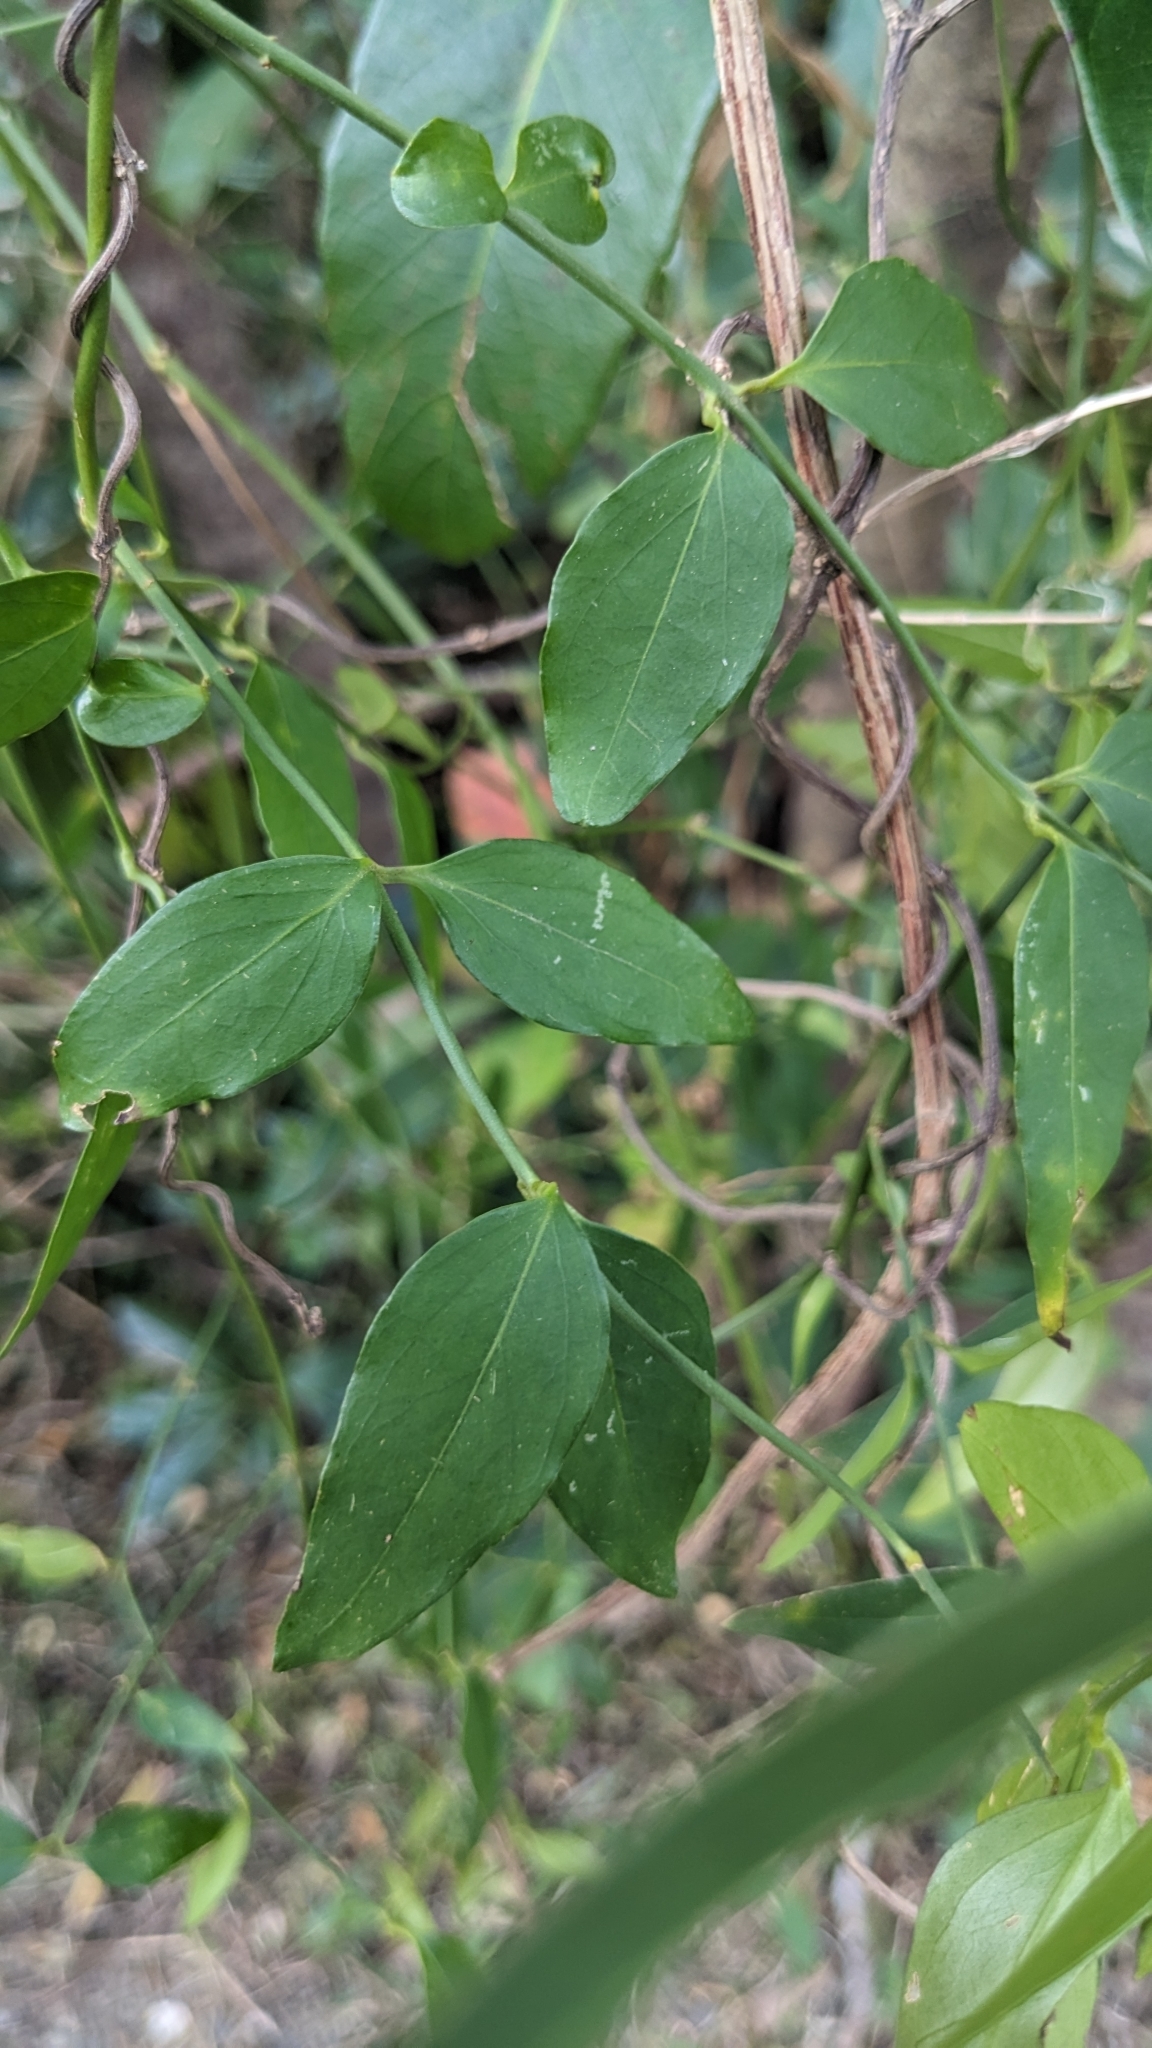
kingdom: Plantae
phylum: Tracheophyta
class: Magnoliopsida
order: Lamiales
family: Oleaceae
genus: Jasminum
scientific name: Jasminum nervosum
